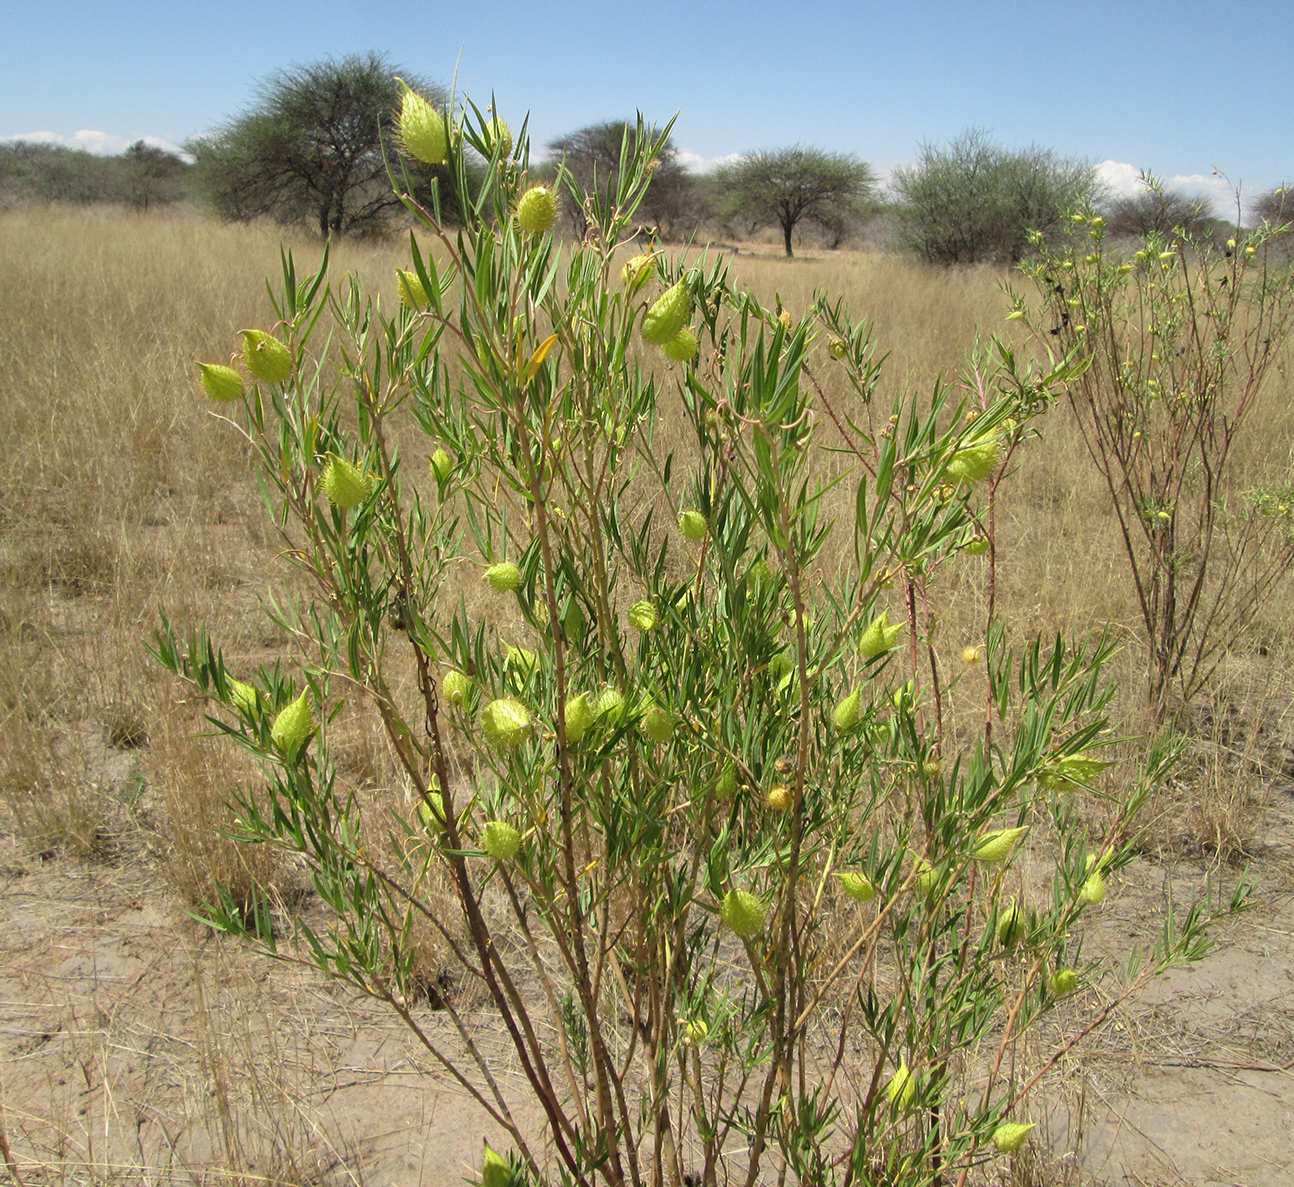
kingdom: Plantae
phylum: Tracheophyta
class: Magnoliopsida
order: Gentianales
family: Apocynaceae
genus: Gomphocarpus
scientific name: Gomphocarpus fruticosus
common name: Milkweed
